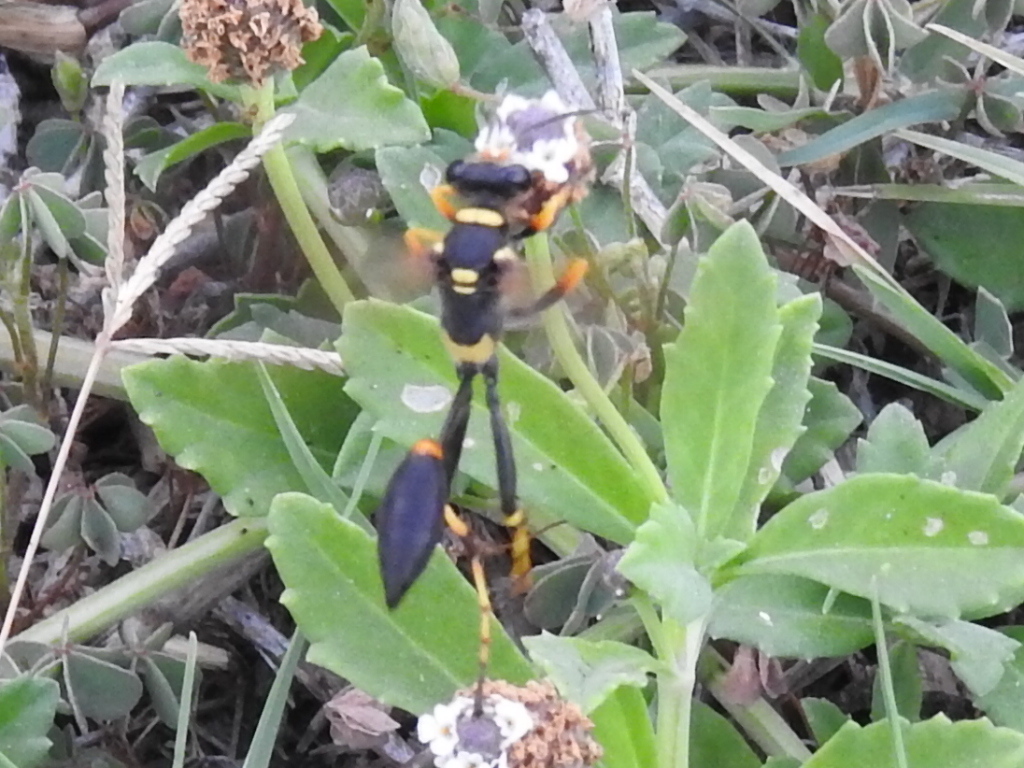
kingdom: Animalia
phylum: Arthropoda
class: Insecta
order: Hymenoptera
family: Sphecidae
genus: Sceliphron
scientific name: Sceliphron caementarium
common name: Mud dauber
